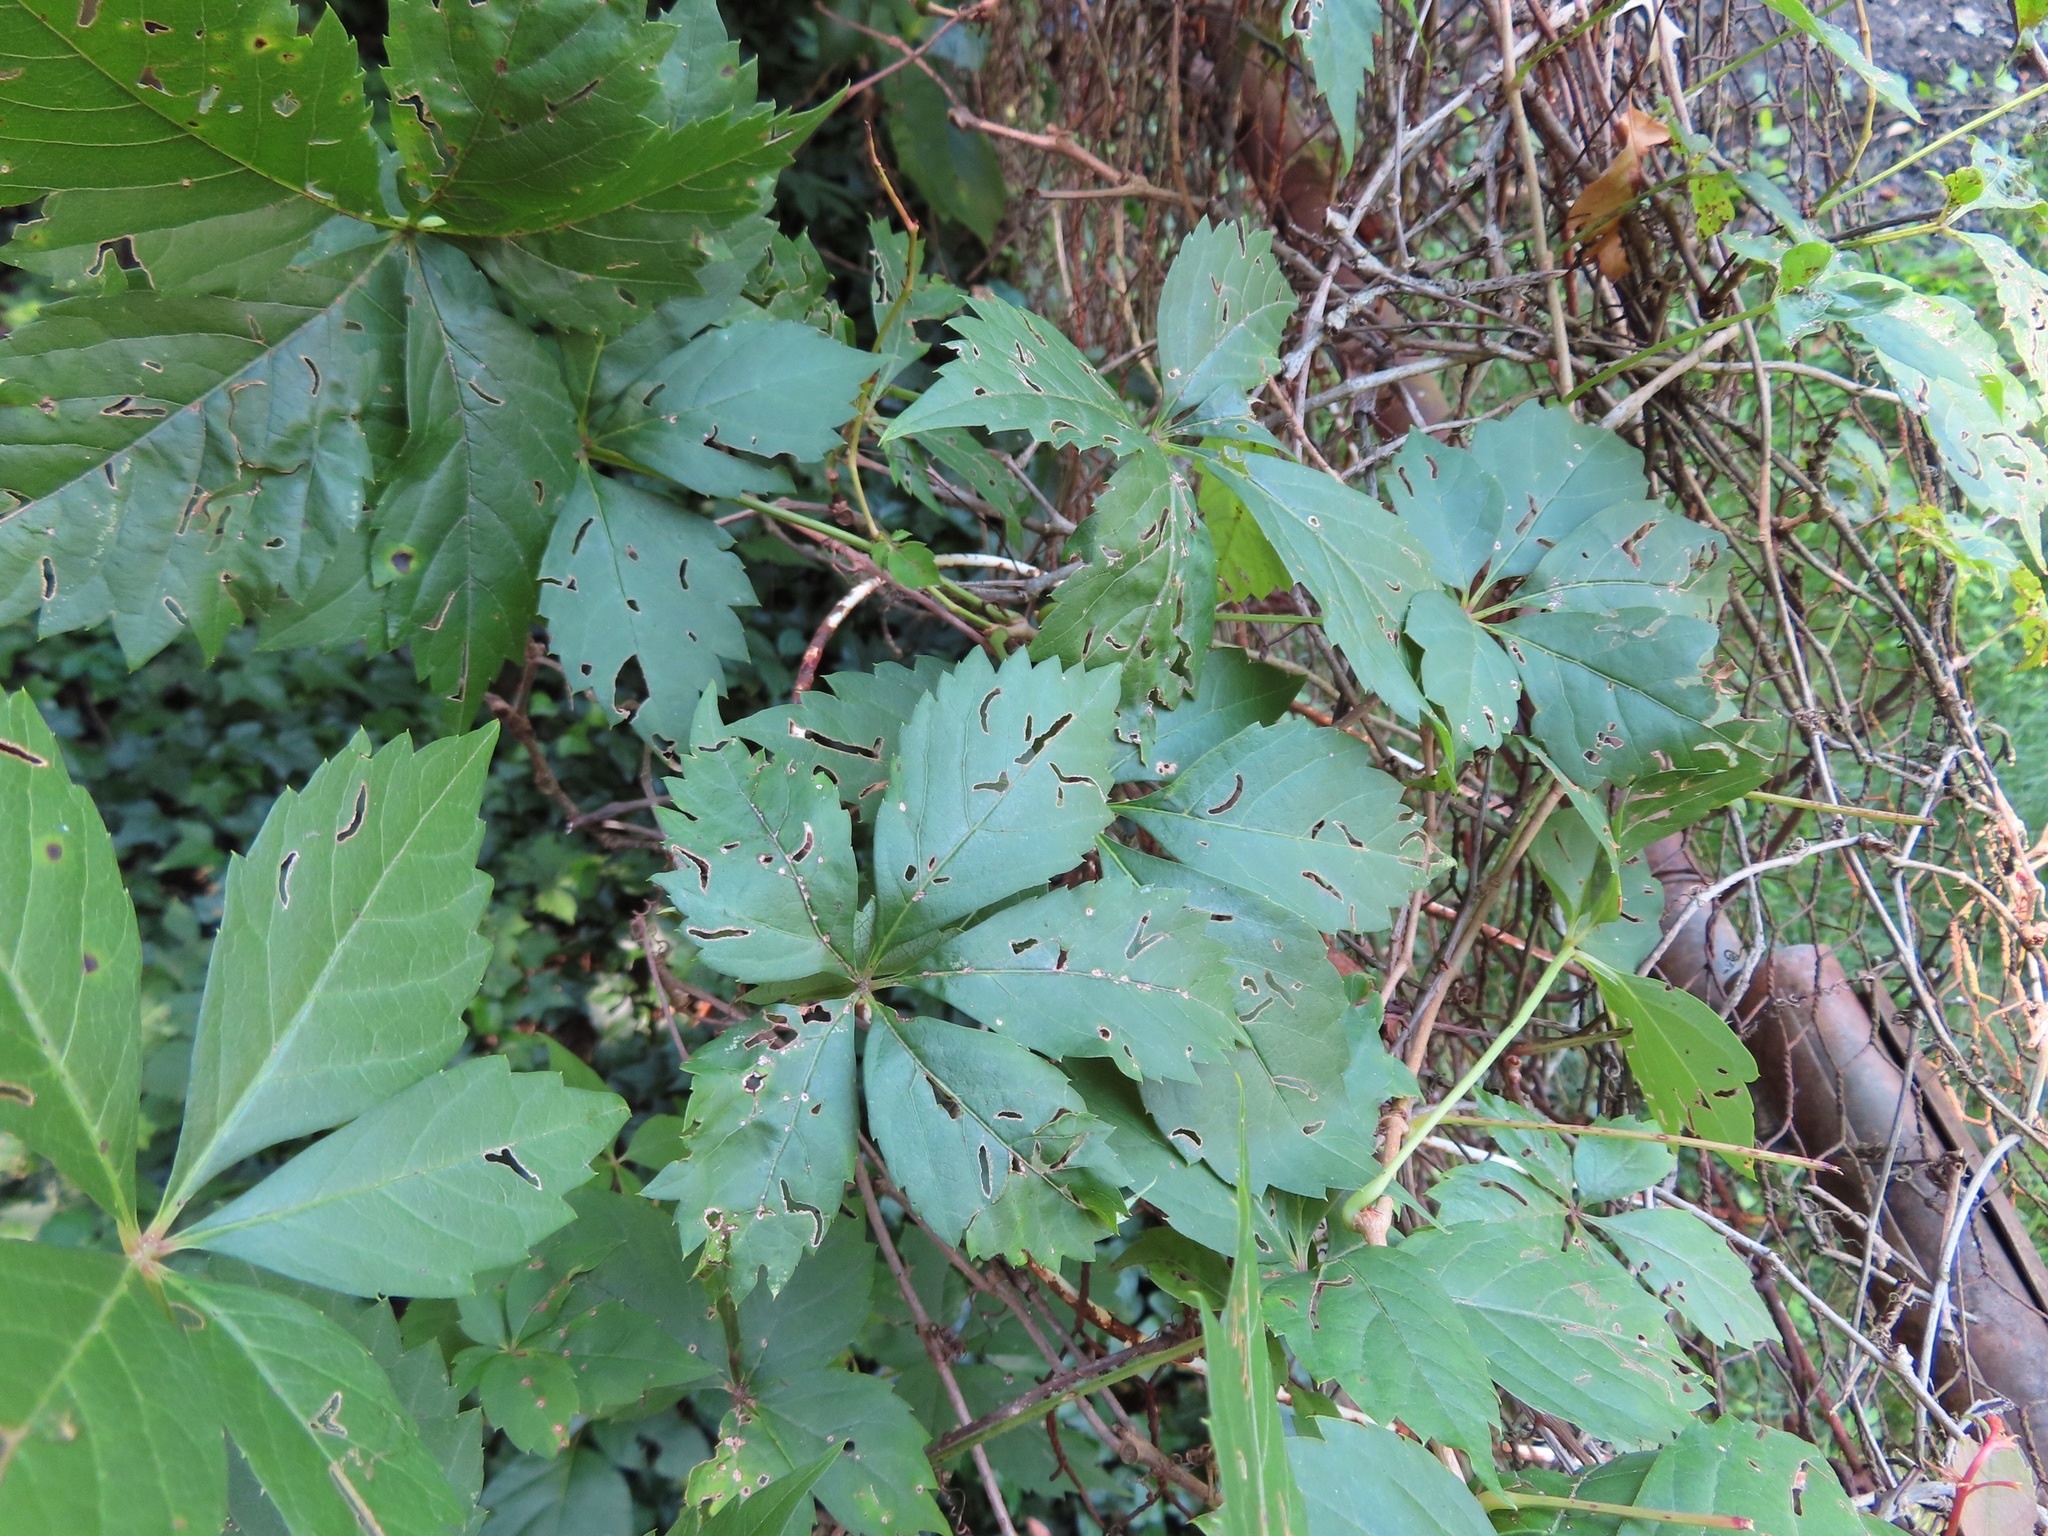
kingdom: Plantae
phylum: Tracheophyta
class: Magnoliopsida
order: Vitales
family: Vitaceae
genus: Parthenocissus
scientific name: Parthenocissus quinquefolia
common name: Virginia-creeper
